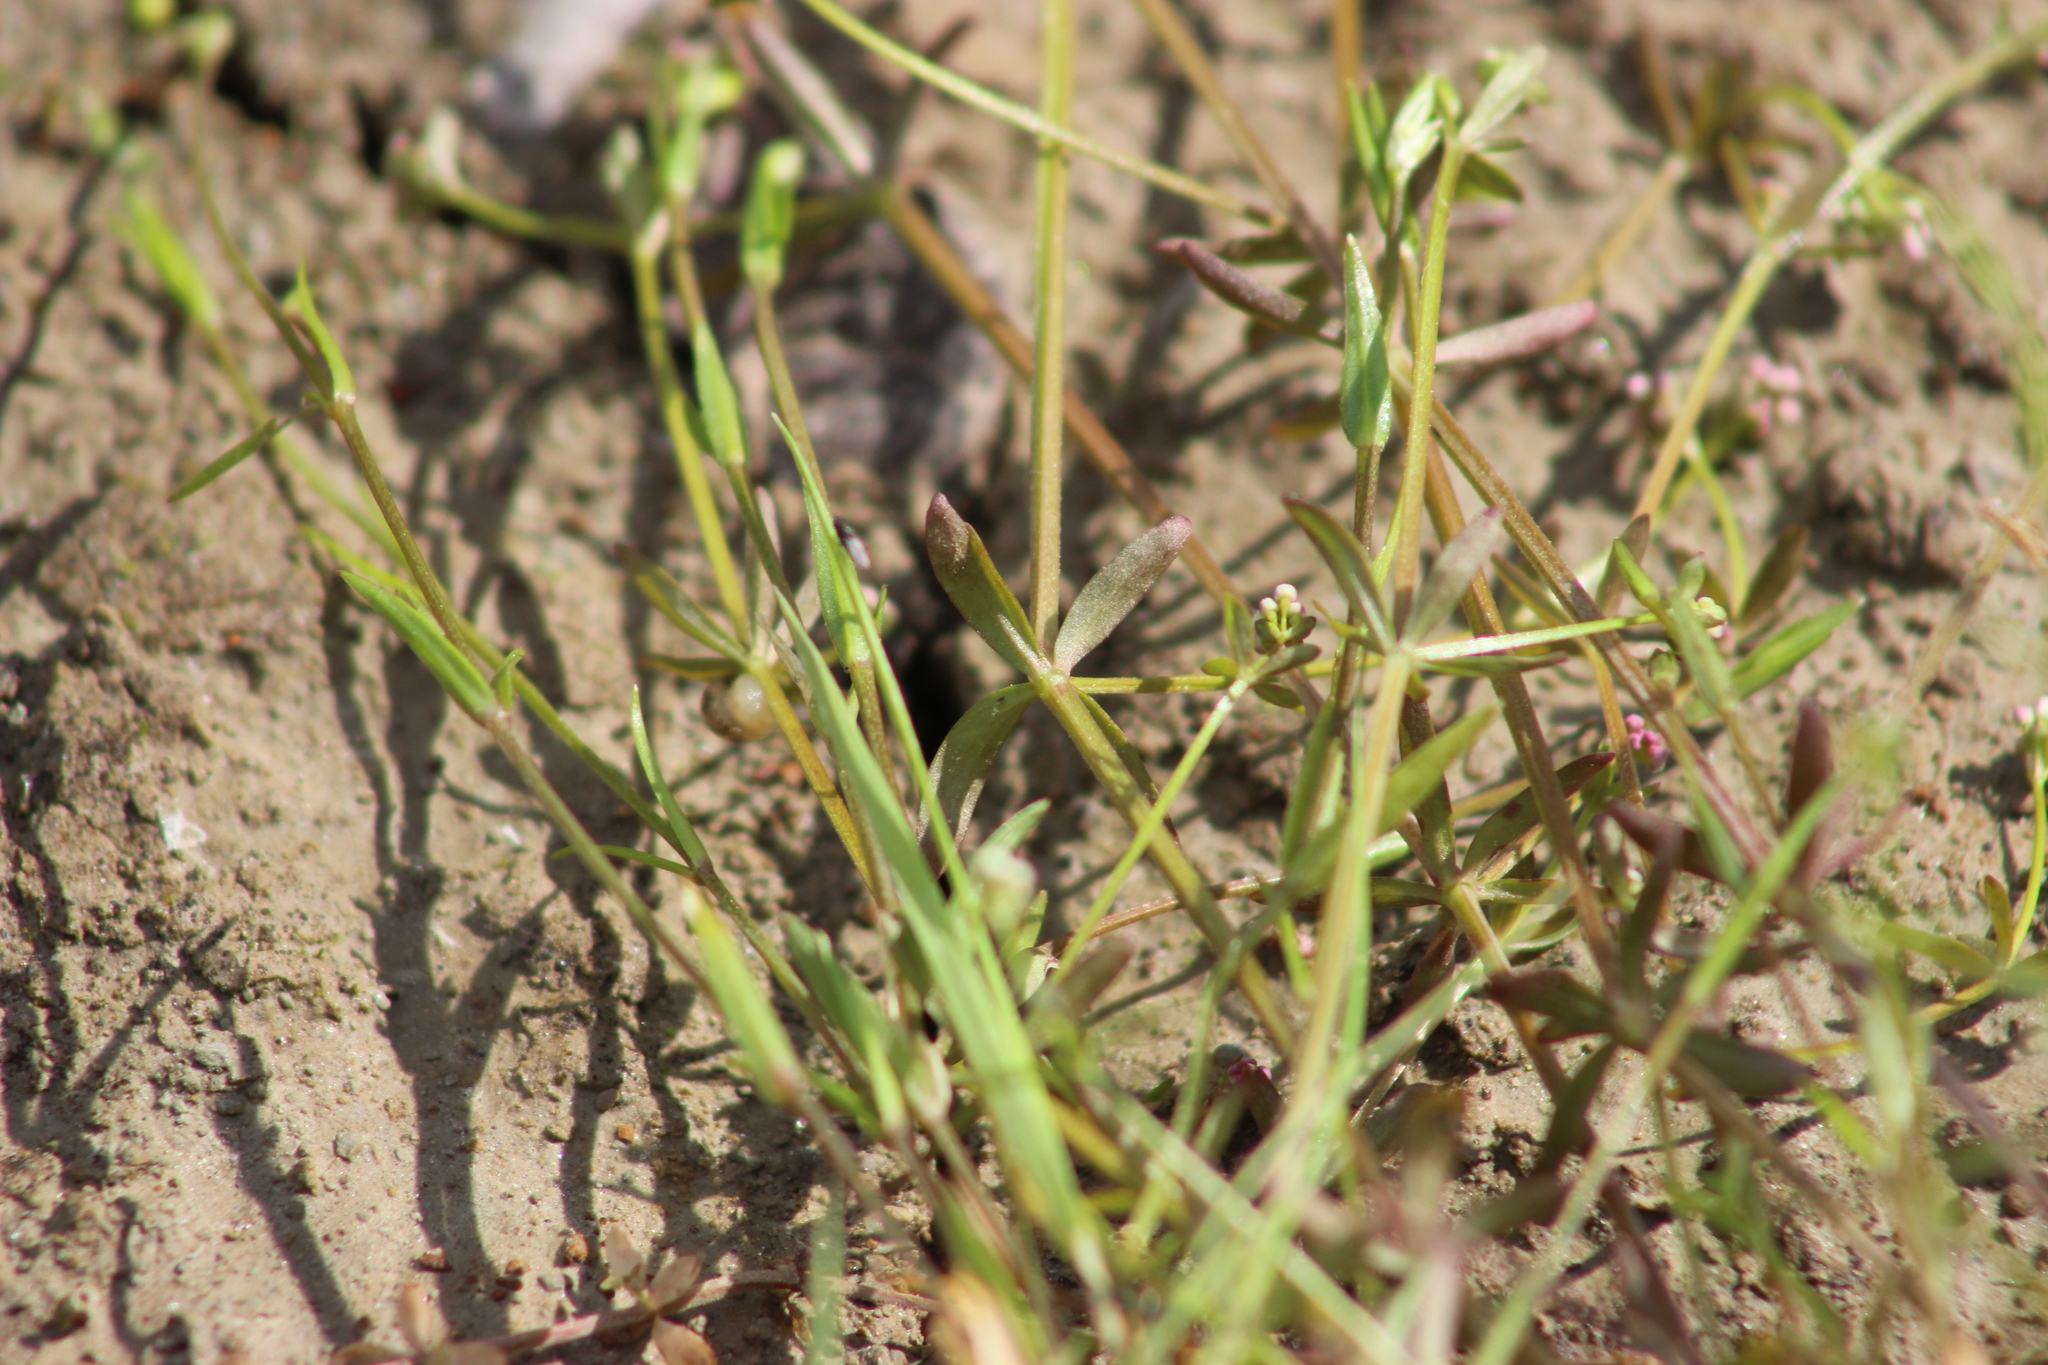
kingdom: Plantae
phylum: Tracheophyta
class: Magnoliopsida
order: Gentianales
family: Rubiaceae
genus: Galium
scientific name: Galium palustre
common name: Common marsh-bedstraw
